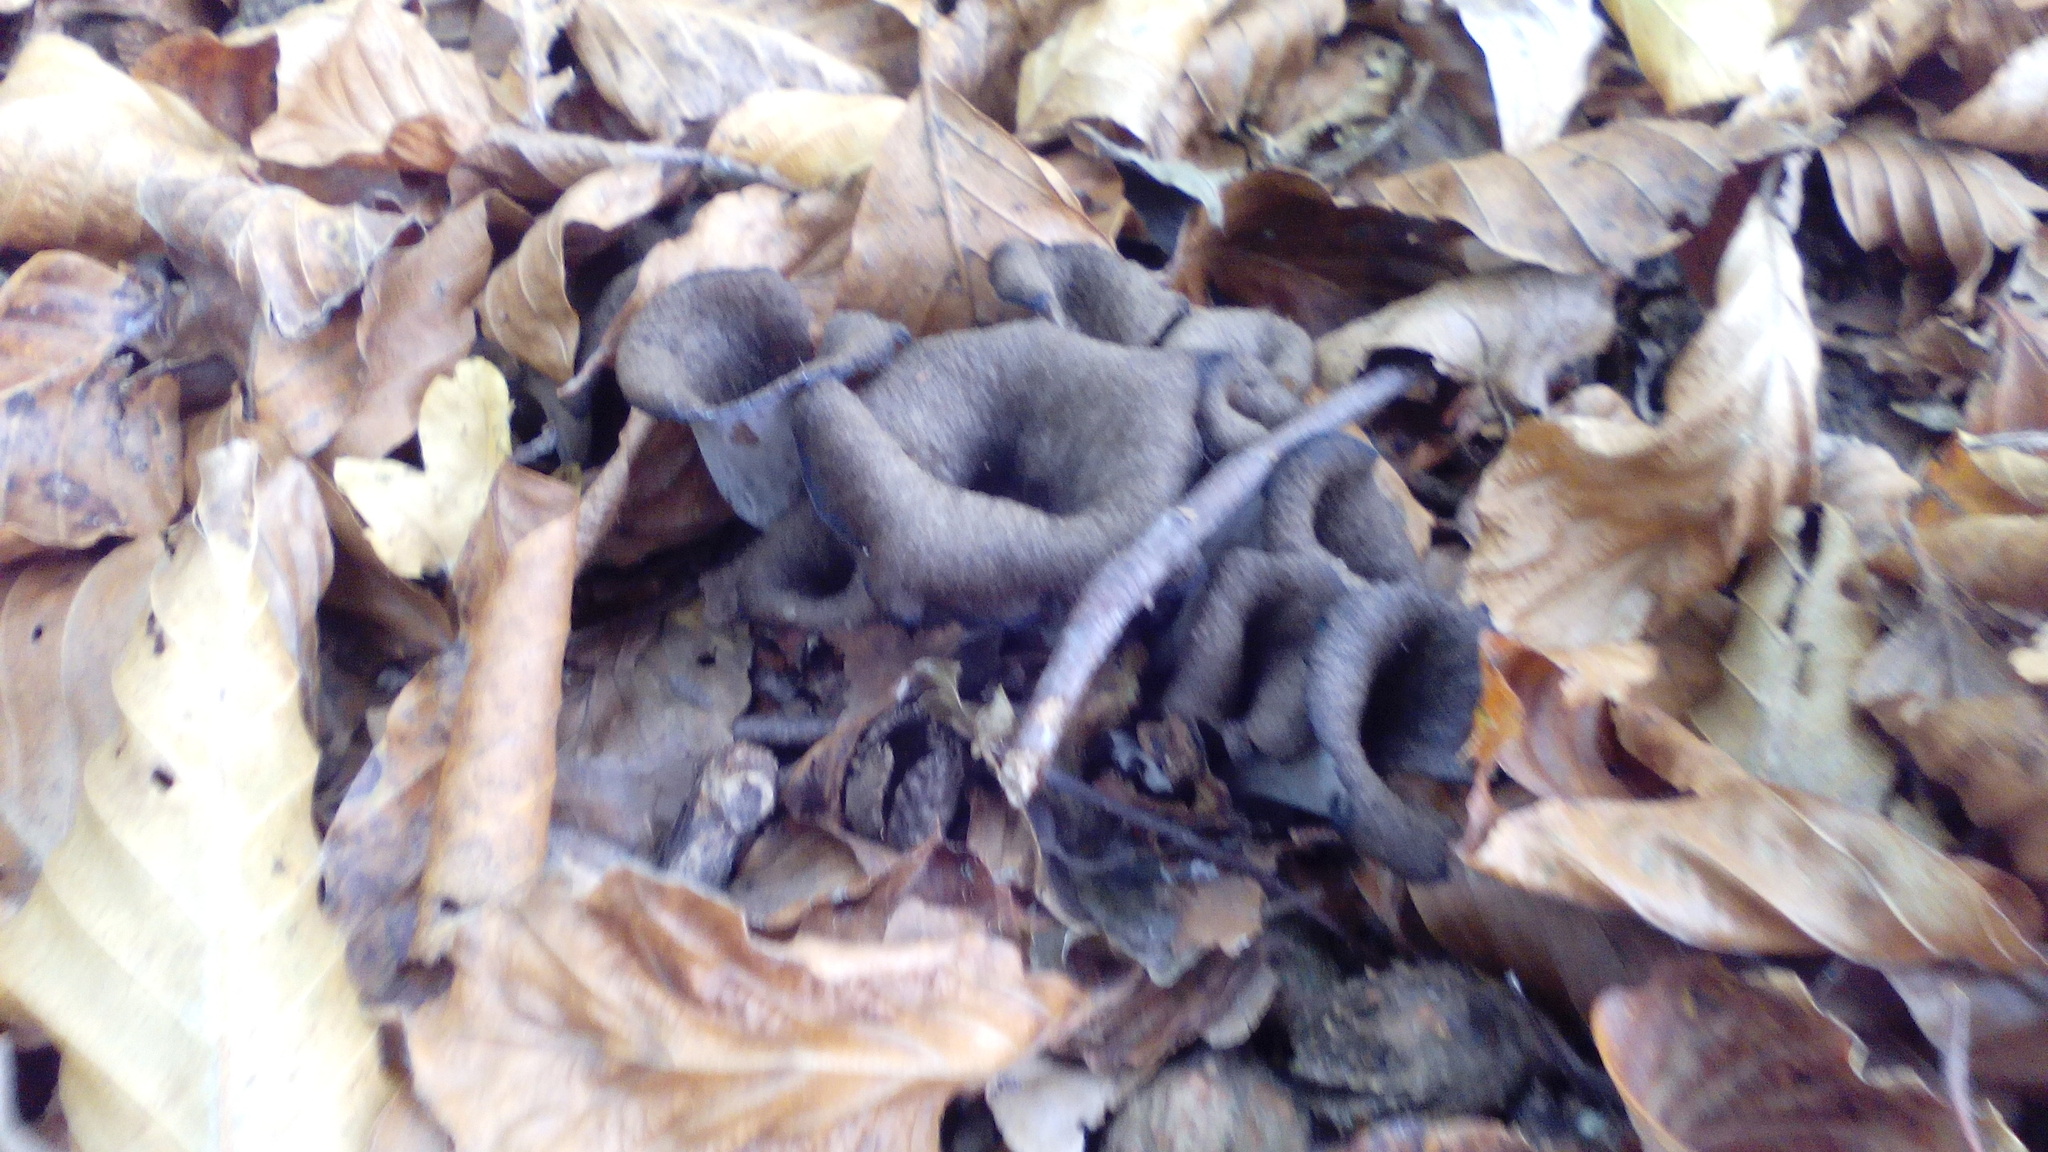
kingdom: Fungi
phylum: Basidiomycota
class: Agaricomycetes
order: Cantharellales
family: Hydnaceae
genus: Craterellus
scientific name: Craterellus cornucopioides
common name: Horn of plenty
